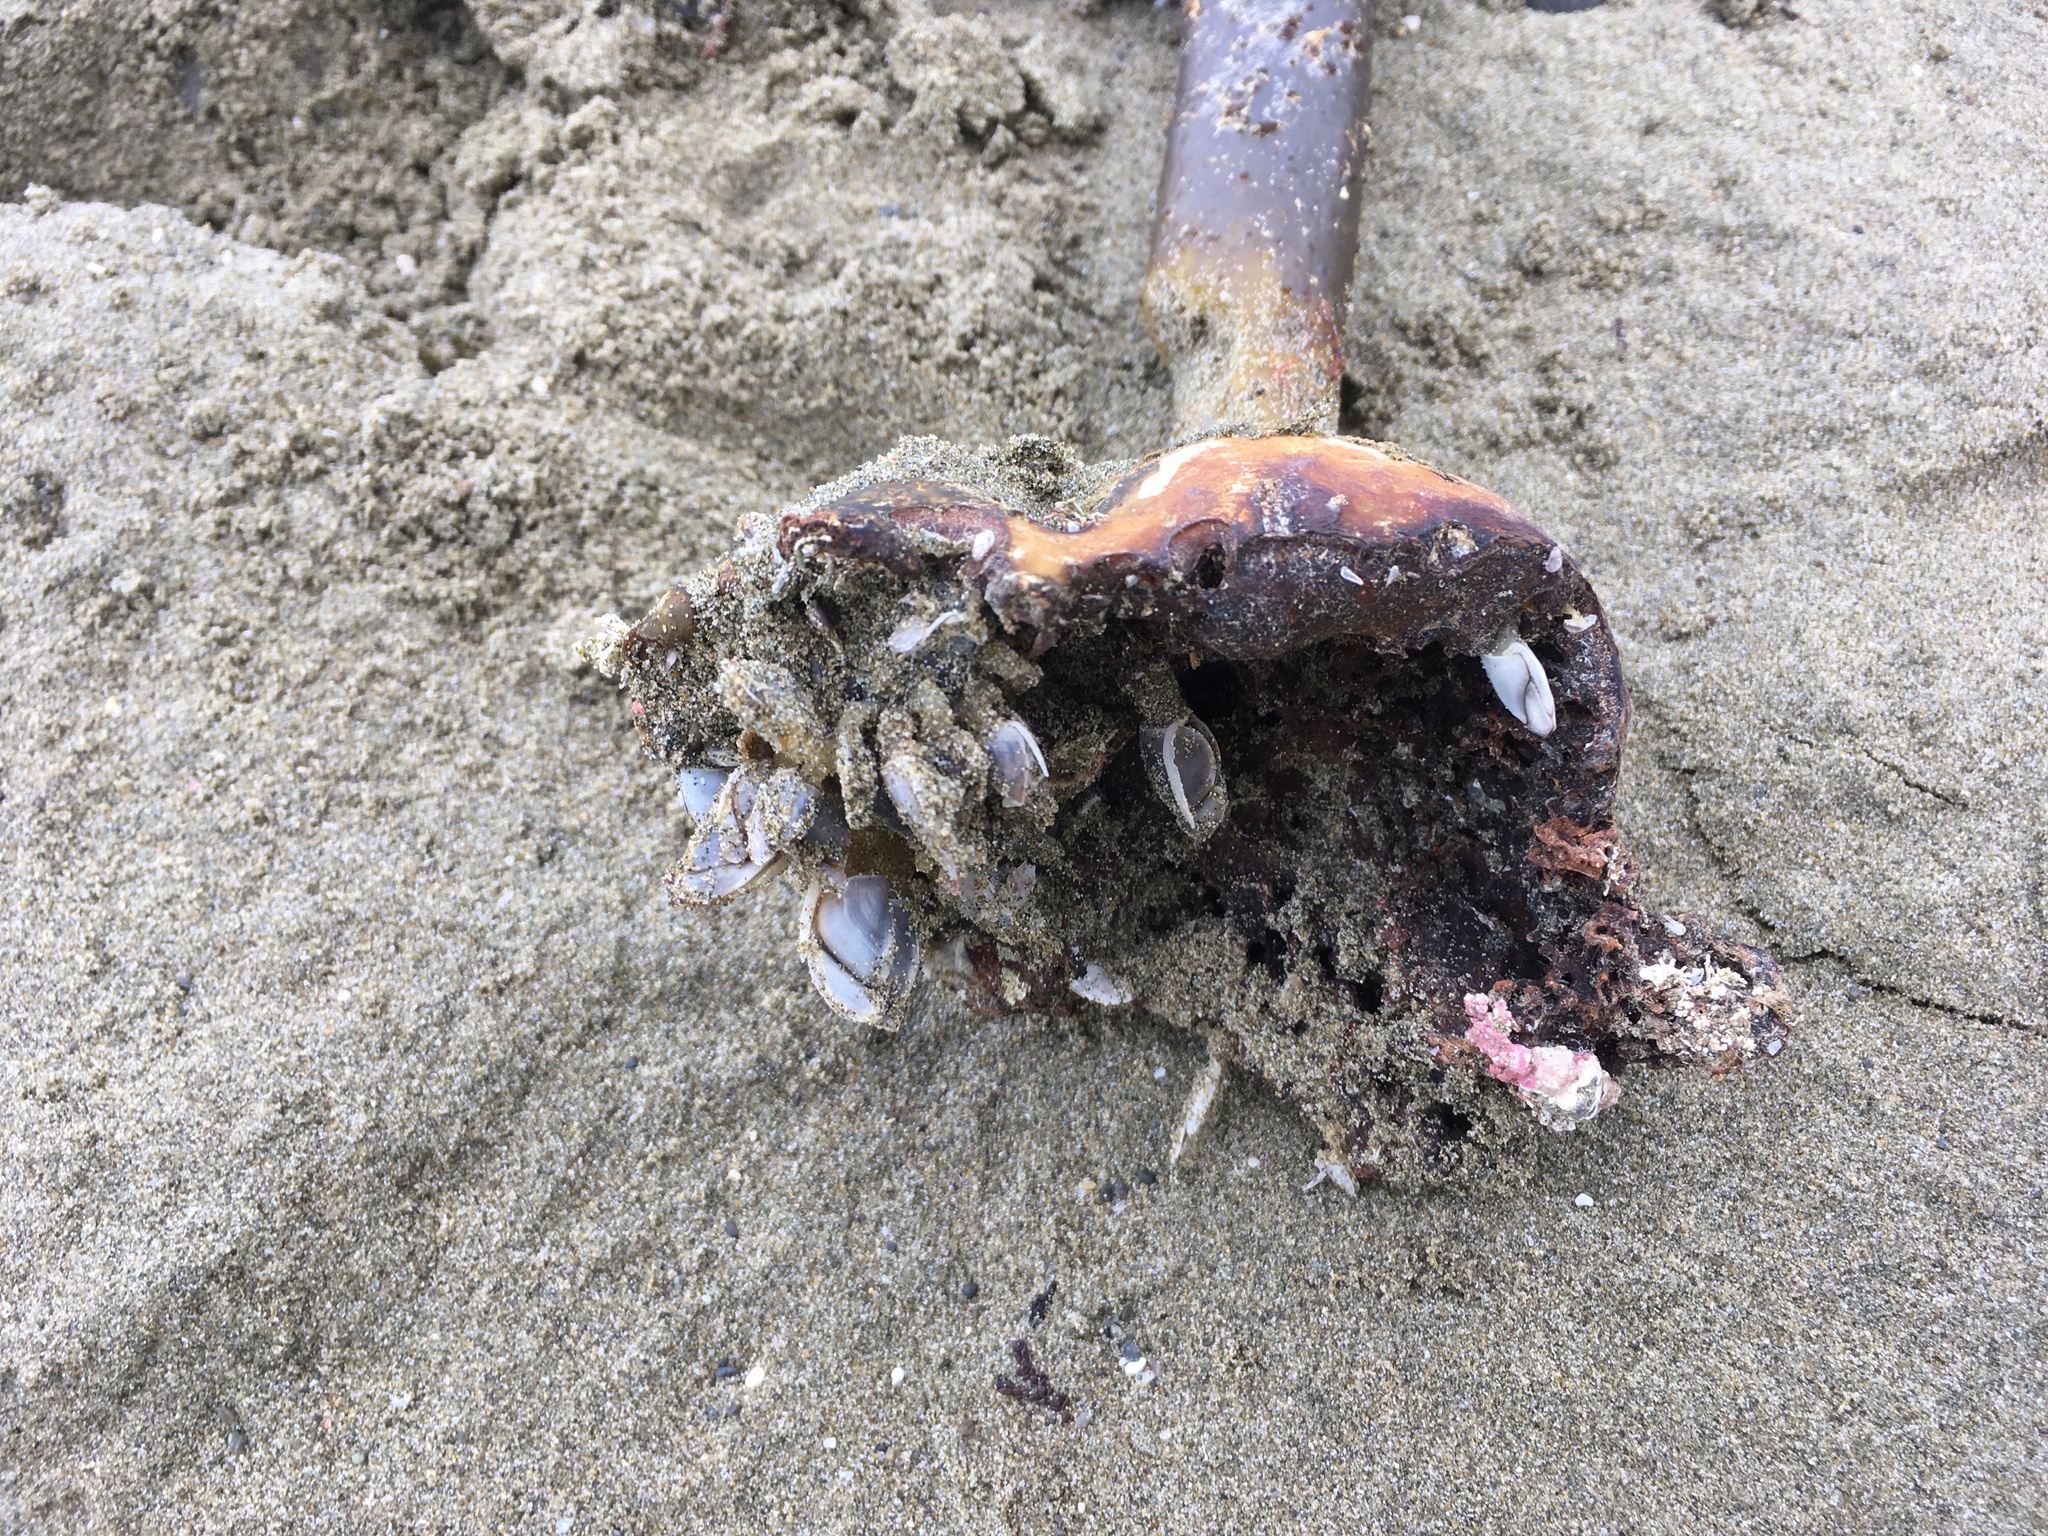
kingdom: Animalia
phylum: Arthropoda
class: Maxillopoda
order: Pedunculata
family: Lepadidae
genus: Lepas
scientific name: Lepas testudinata
